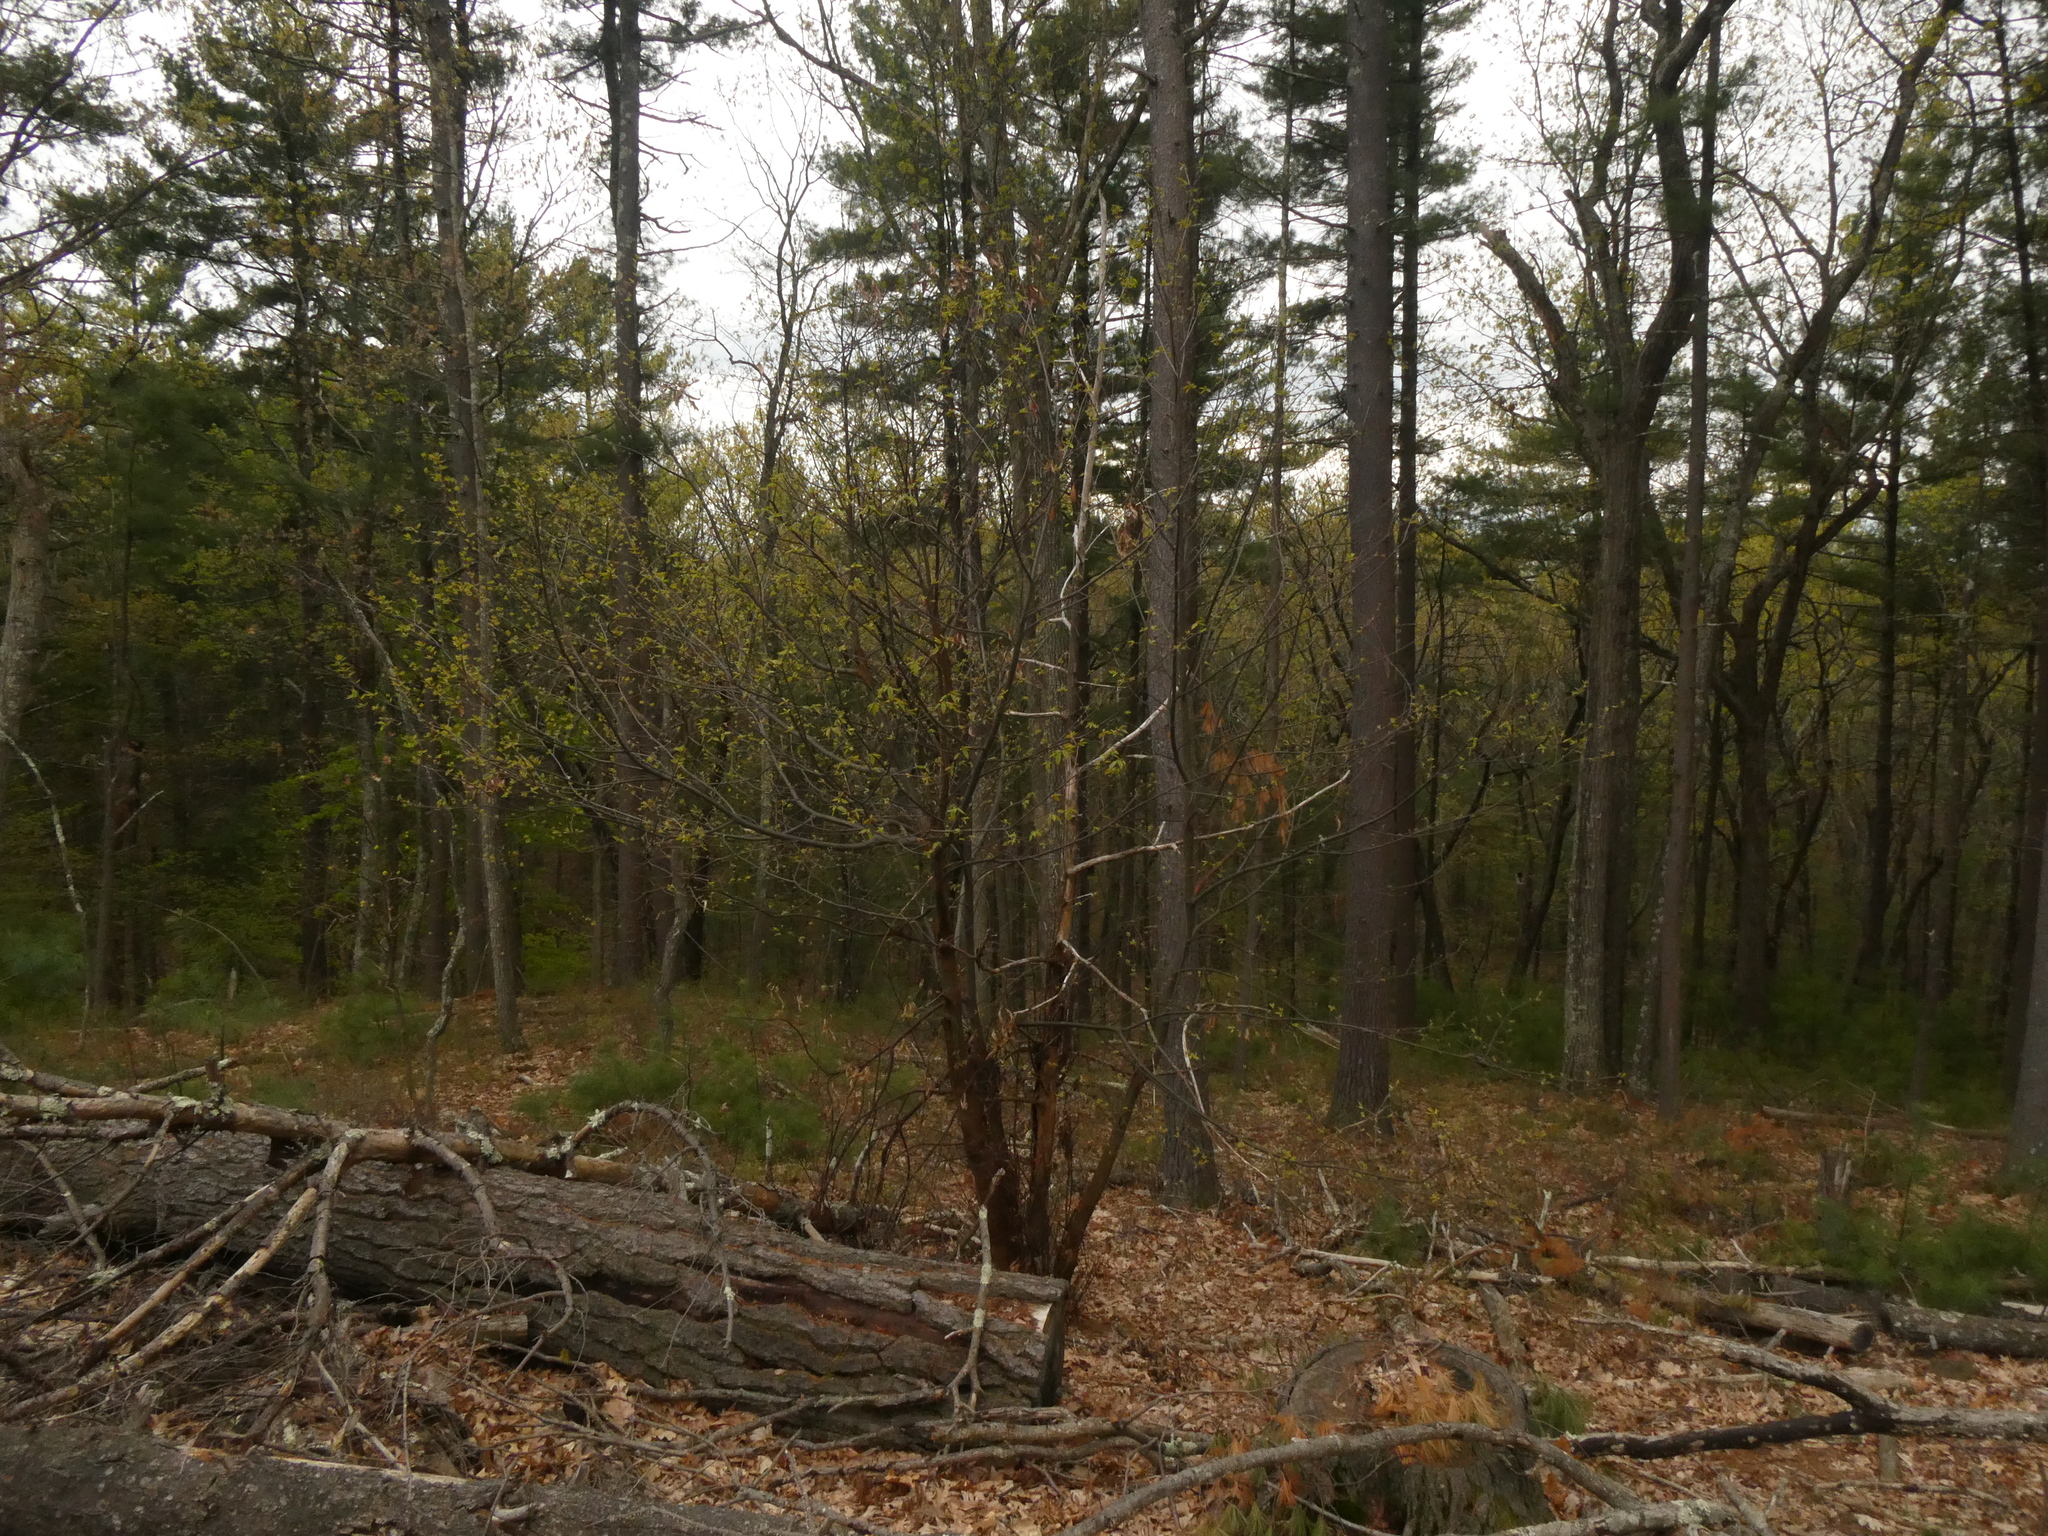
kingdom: Plantae
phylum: Tracheophyta
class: Magnoliopsida
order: Fagales
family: Fagaceae
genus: Castanea
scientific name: Castanea dentata
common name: American chestnut
